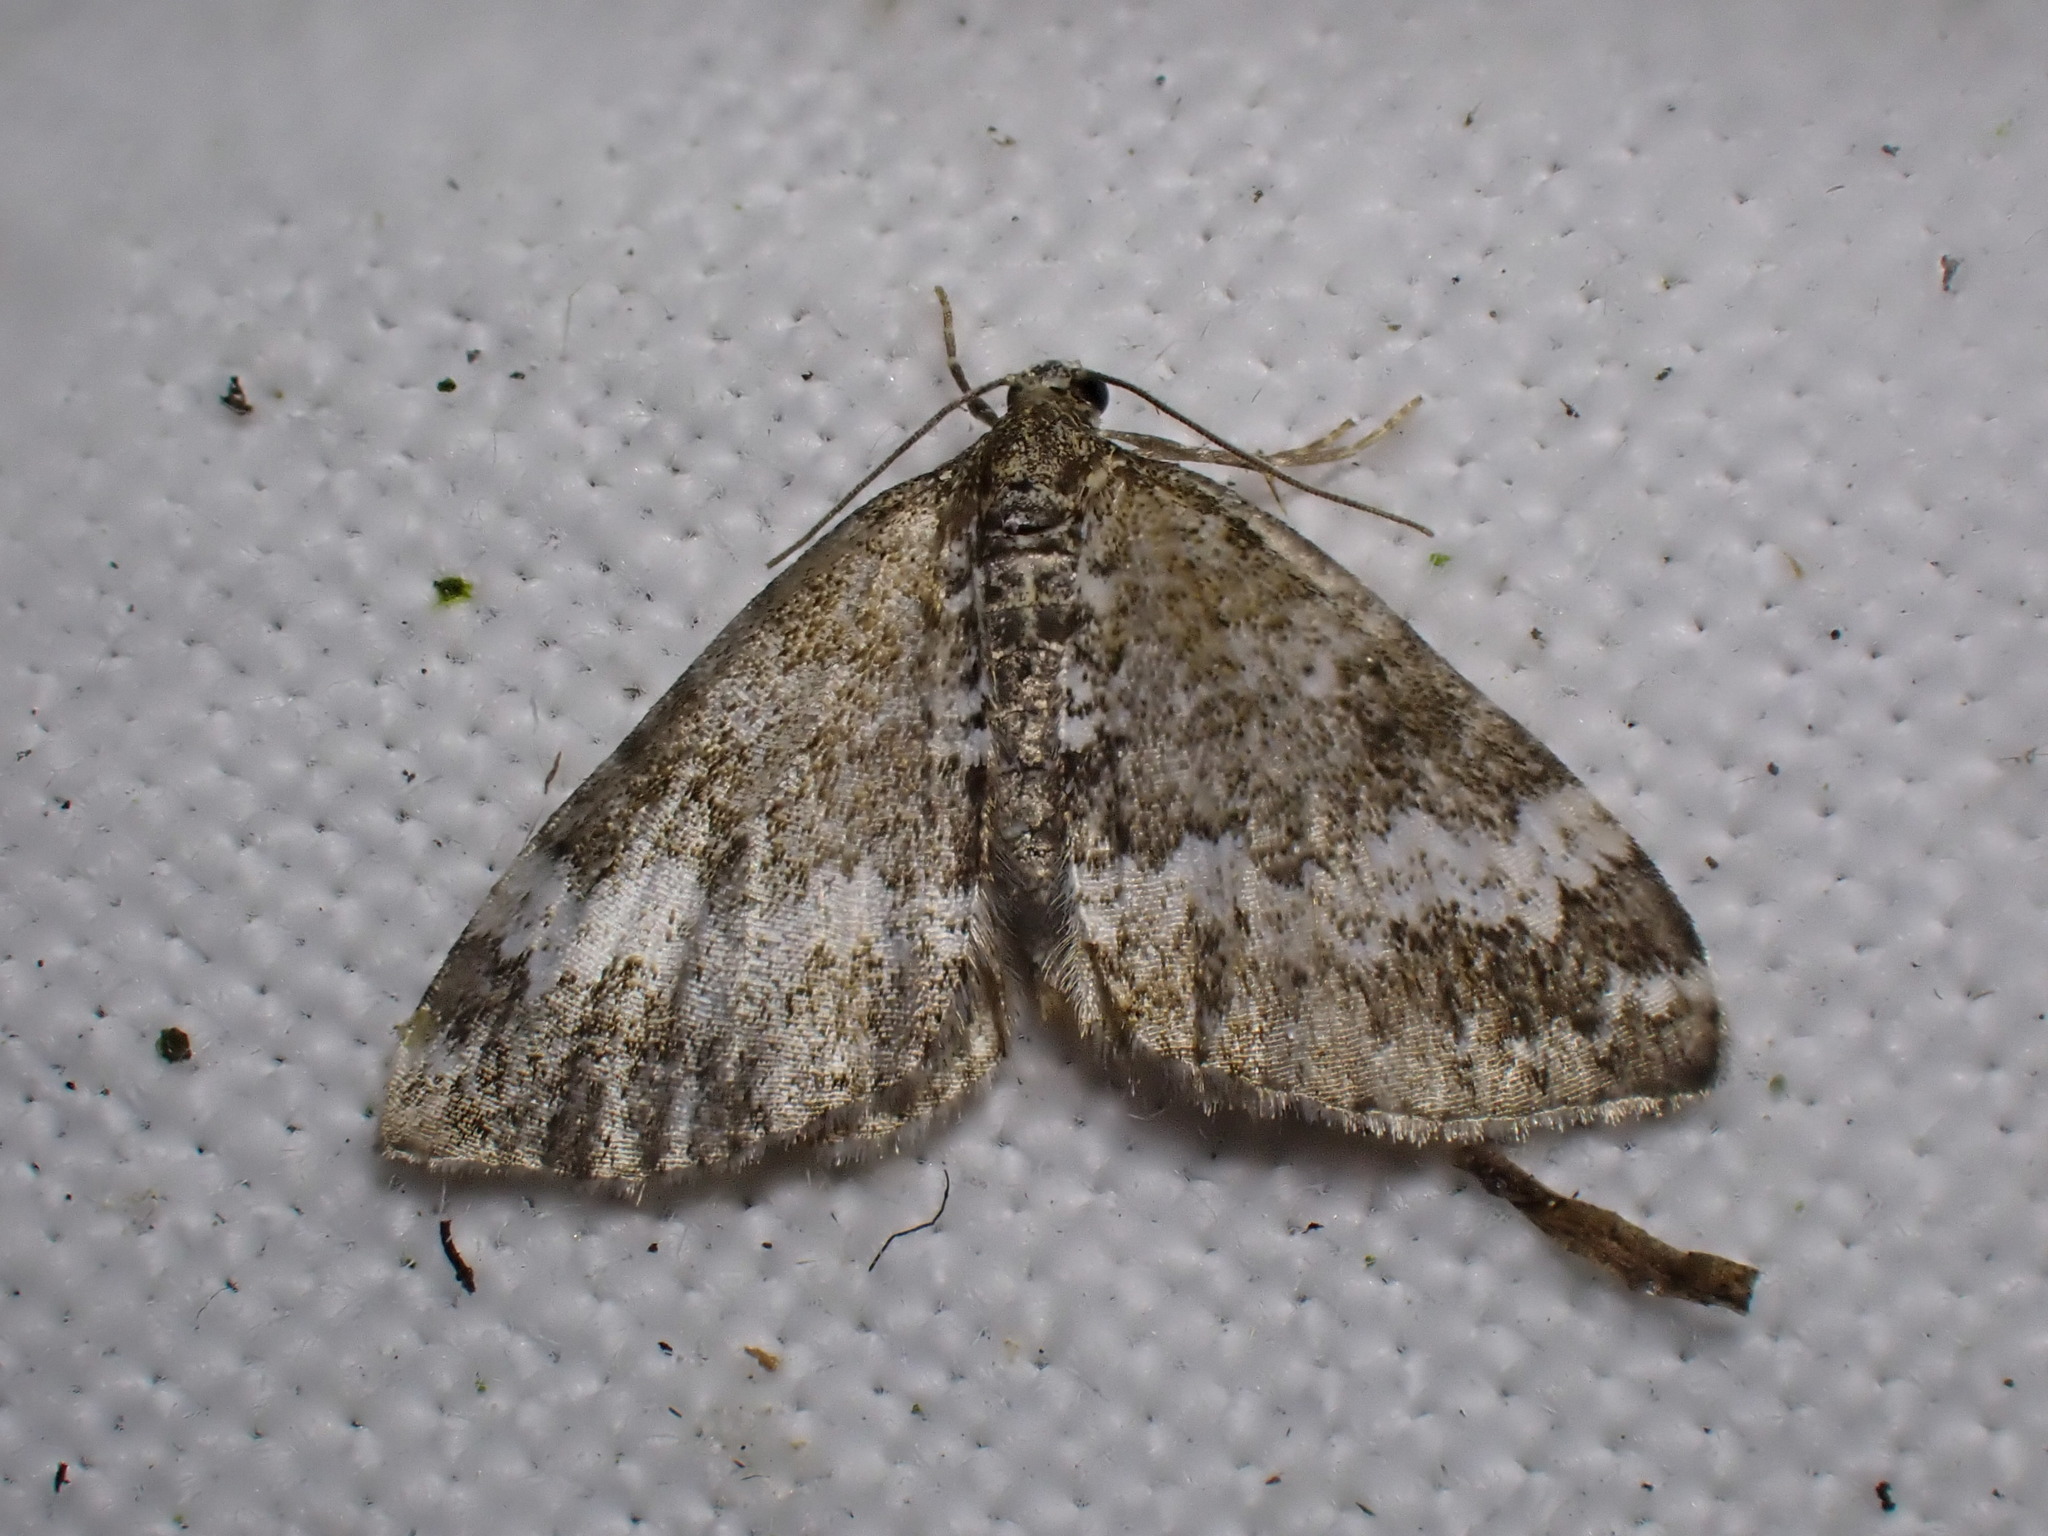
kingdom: Animalia
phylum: Arthropoda
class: Insecta
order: Lepidoptera
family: Geometridae
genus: Perizoma
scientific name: Perizoma alchemillata
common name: Small rivulet
